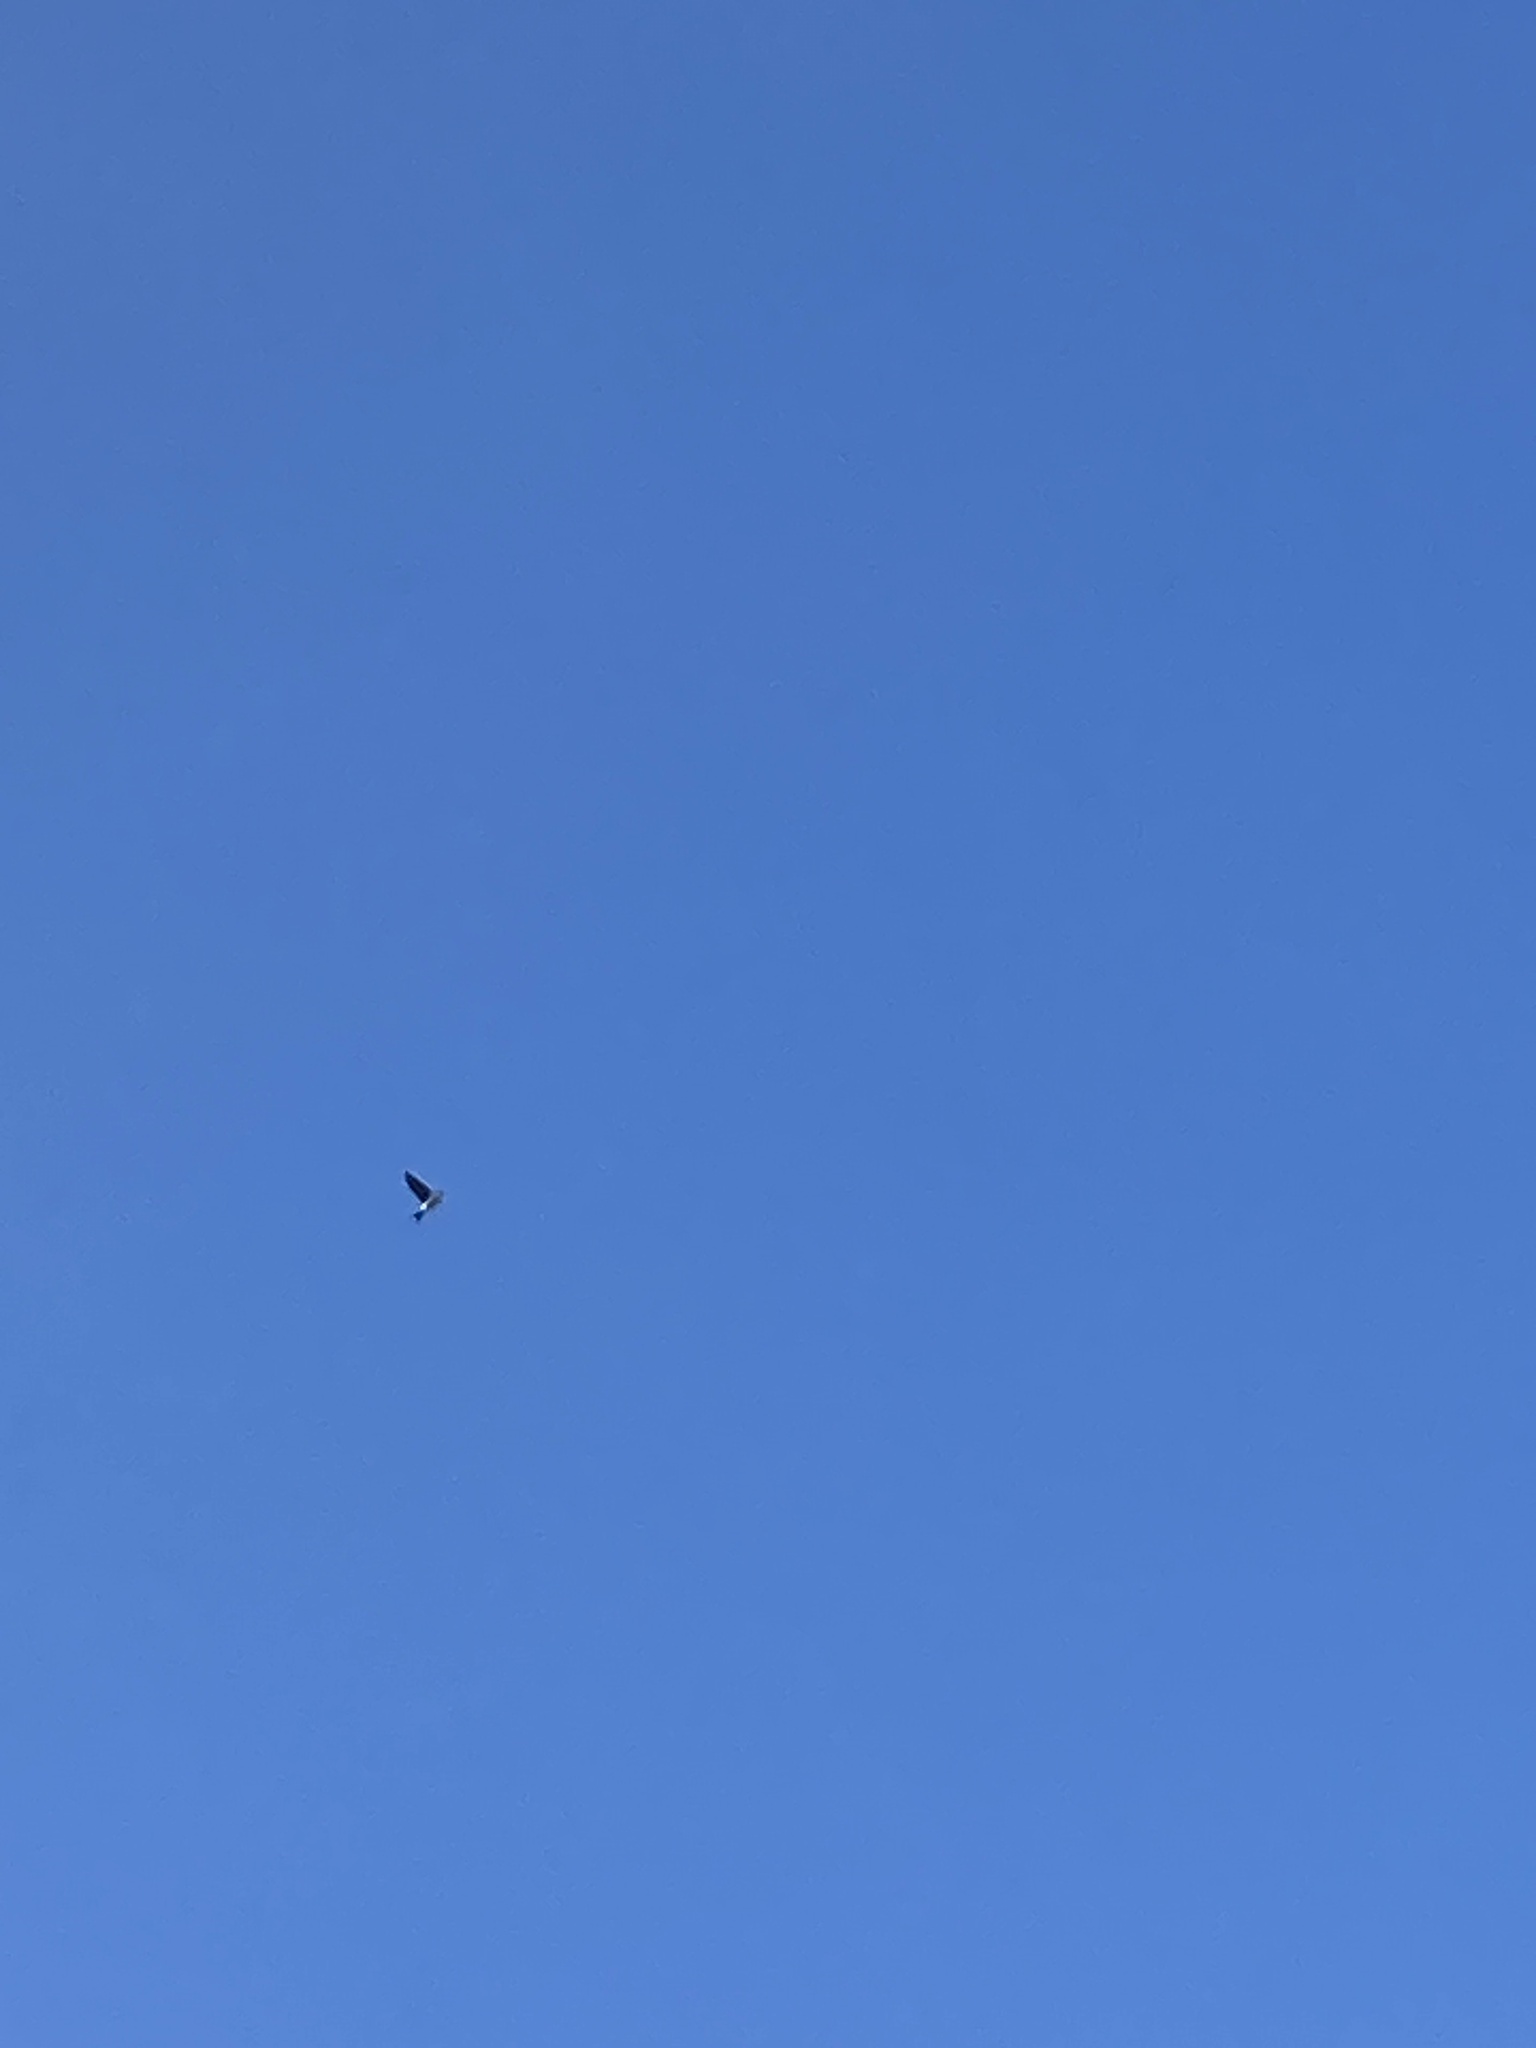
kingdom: Animalia
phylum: Chordata
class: Aves
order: Passeriformes
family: Hirundinidae
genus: Delichon
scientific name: Delichon urbicum
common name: Common house martin
